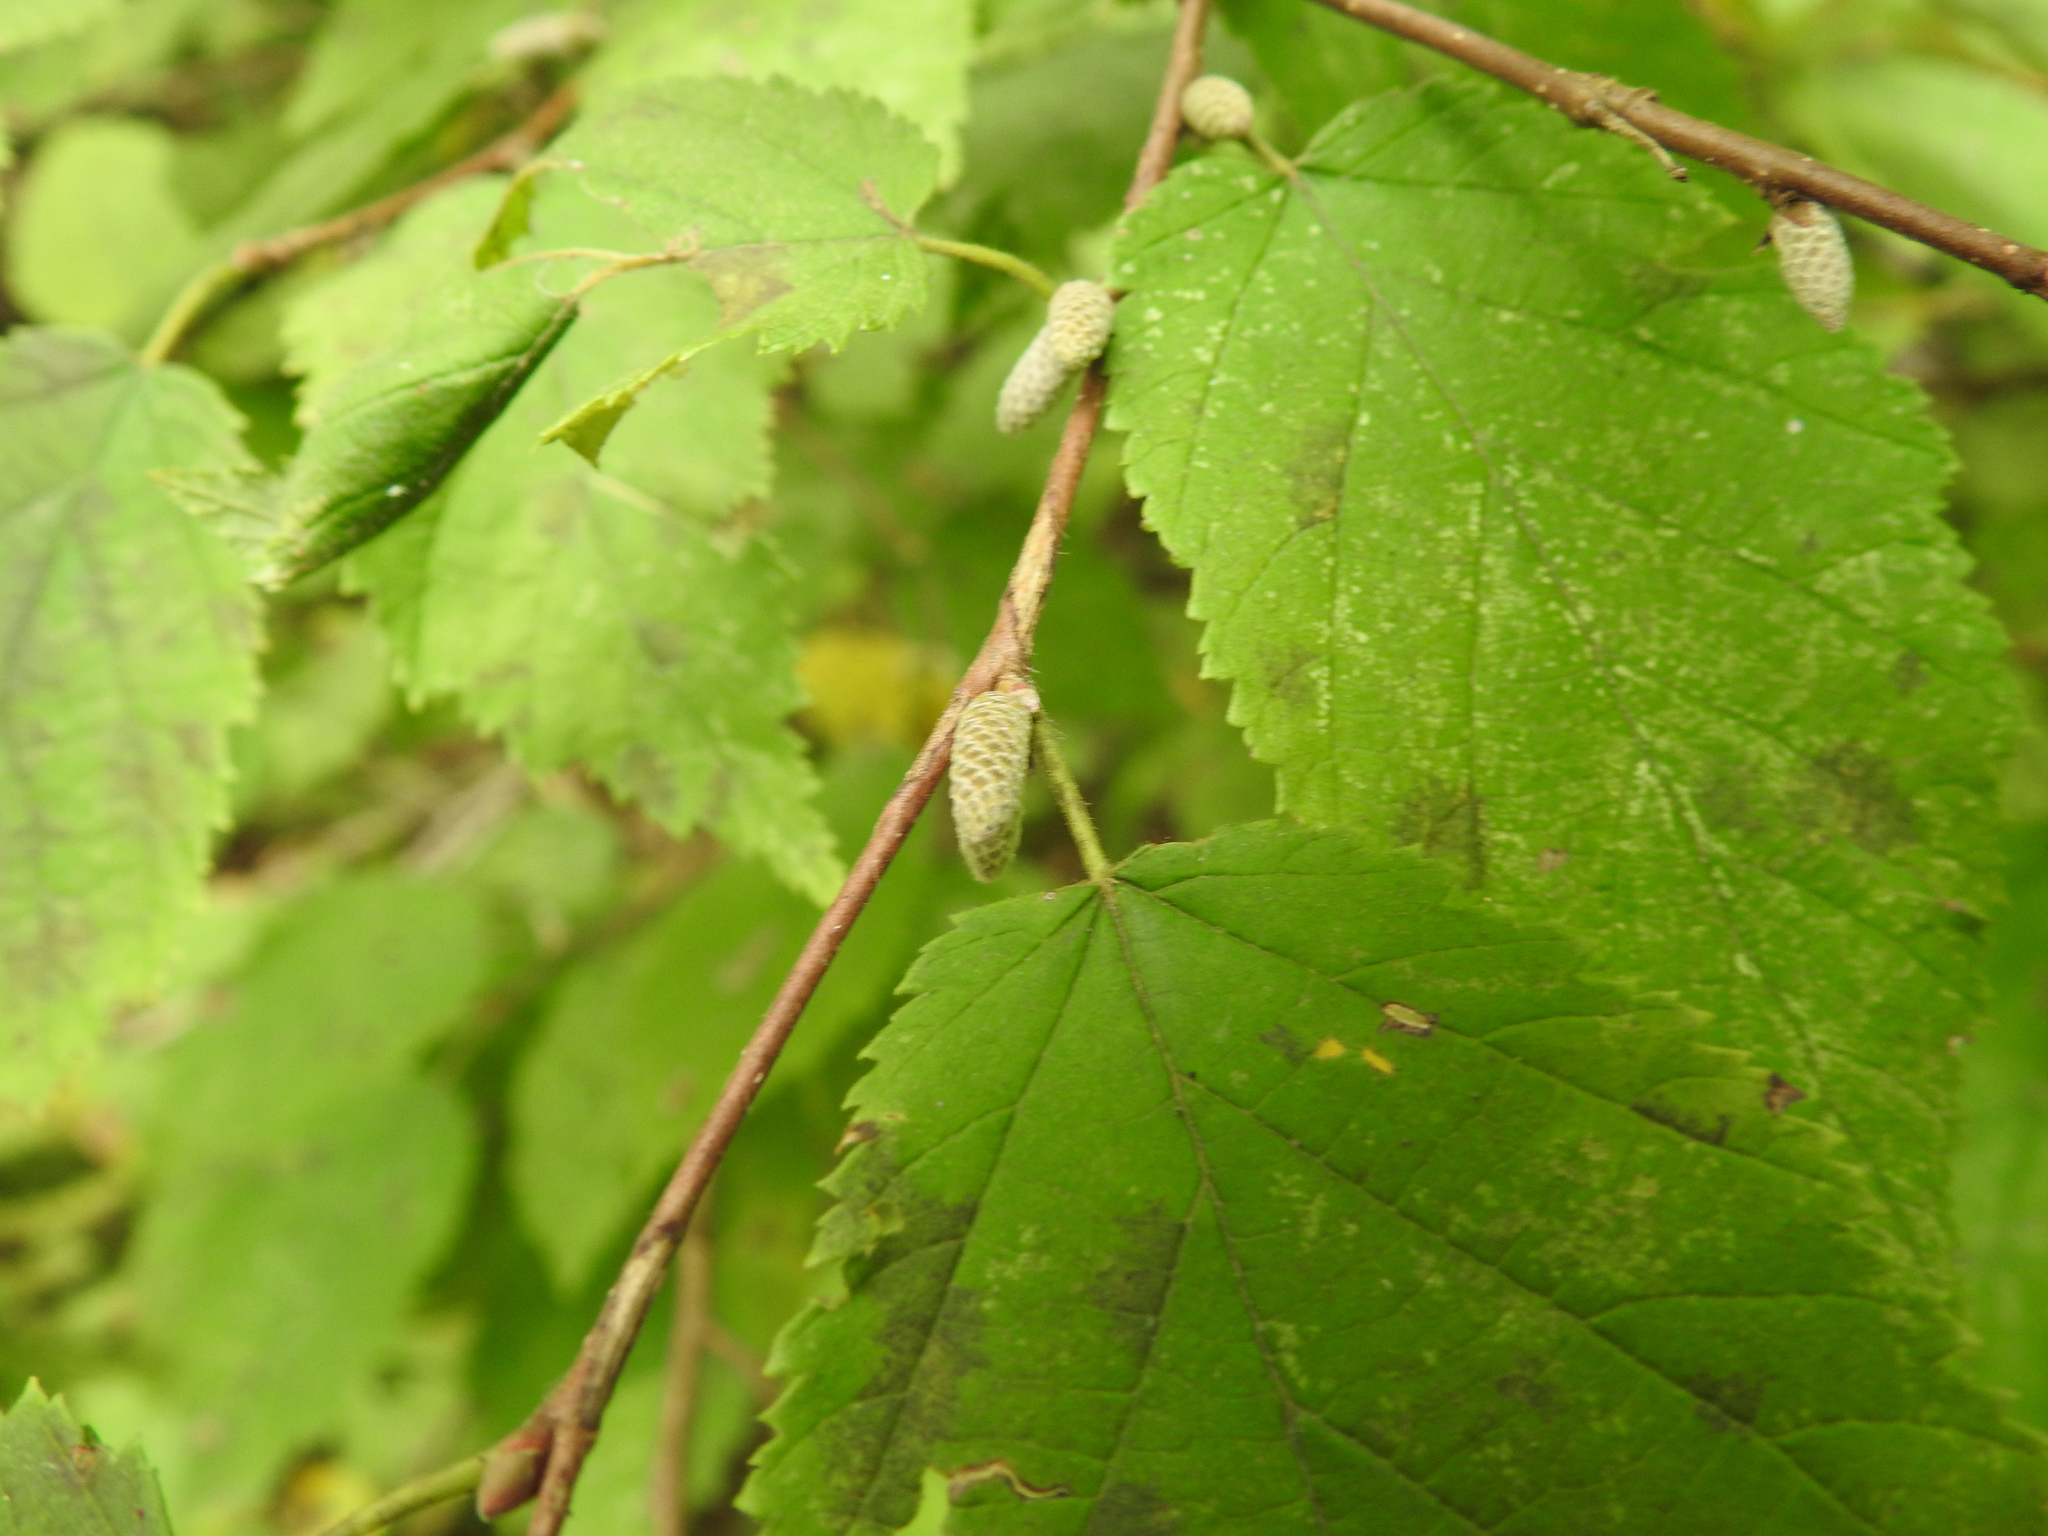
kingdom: Plantae
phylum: Tracheophyta
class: Magnoliopsida
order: Fagales
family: Betulaceae
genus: Corylus
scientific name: Corylus cornuta
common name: Beaked hazel
